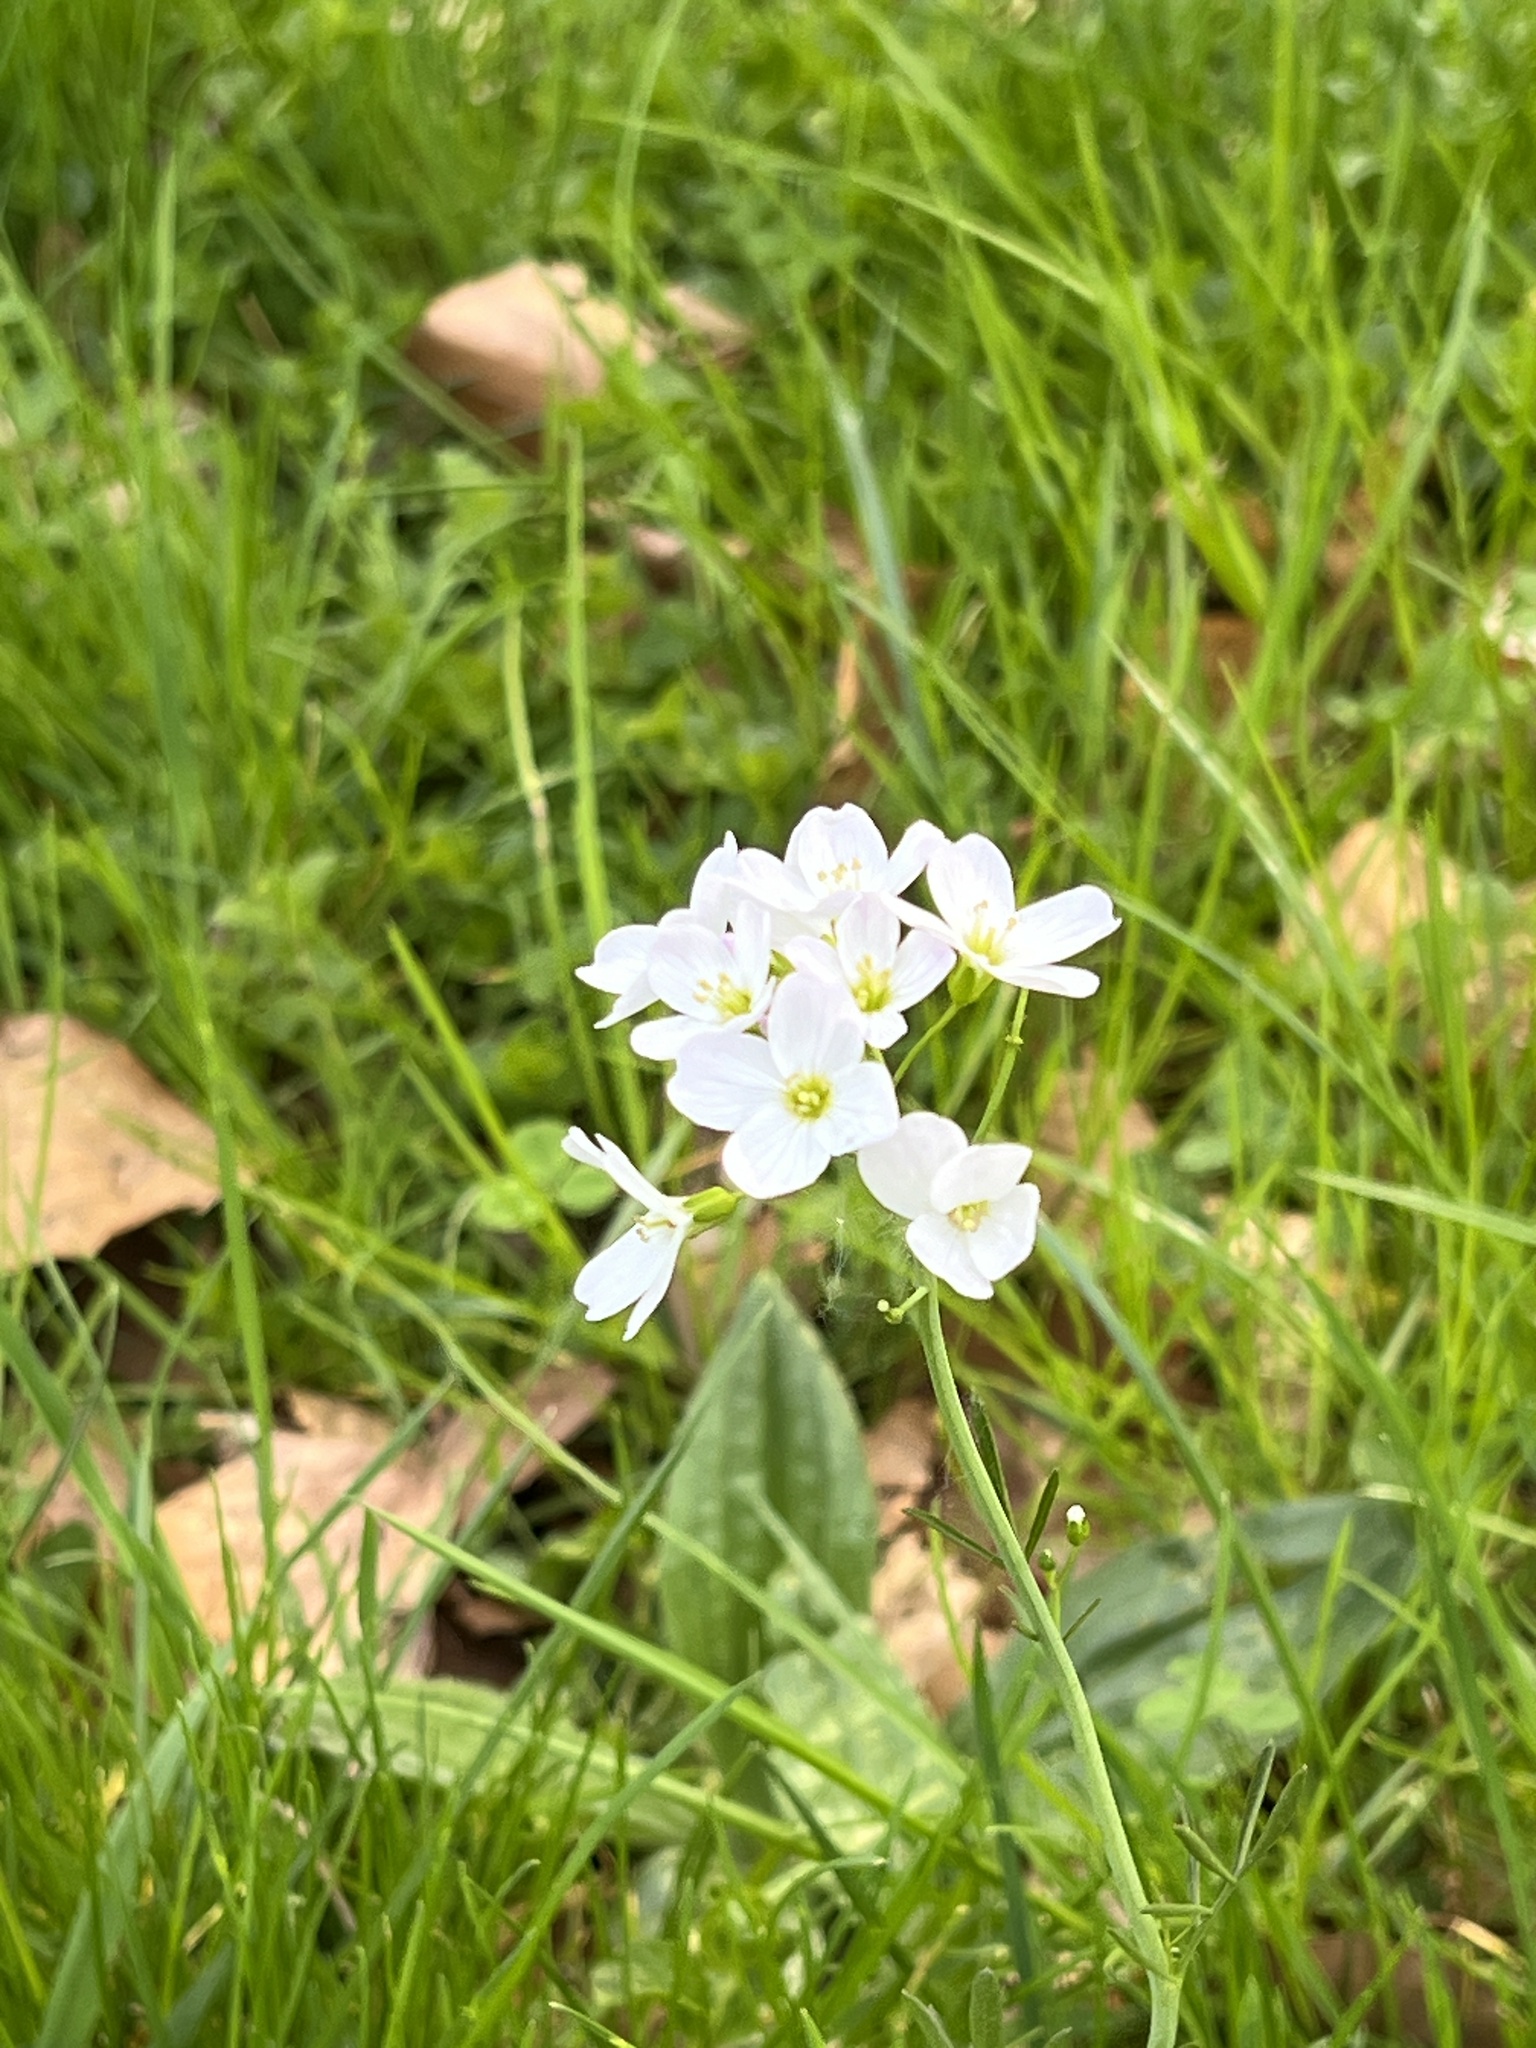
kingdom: Plantae
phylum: Tracheophyta
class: Magnoliopsida
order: Brassicales
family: Brassicaceae
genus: Cardamine
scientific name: Cardamine pratensis
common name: Cuckoo flower
